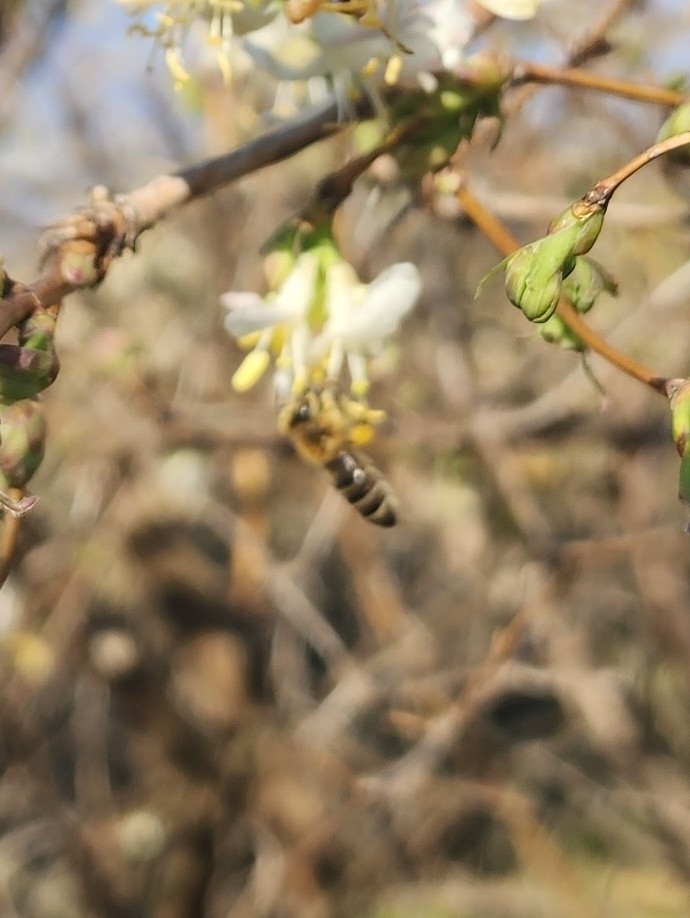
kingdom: Animalia
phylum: Arthropoda
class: Insecta
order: Hymenoptera
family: Apidae
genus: Apis
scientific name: Apis mellifera
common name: Honey bee
